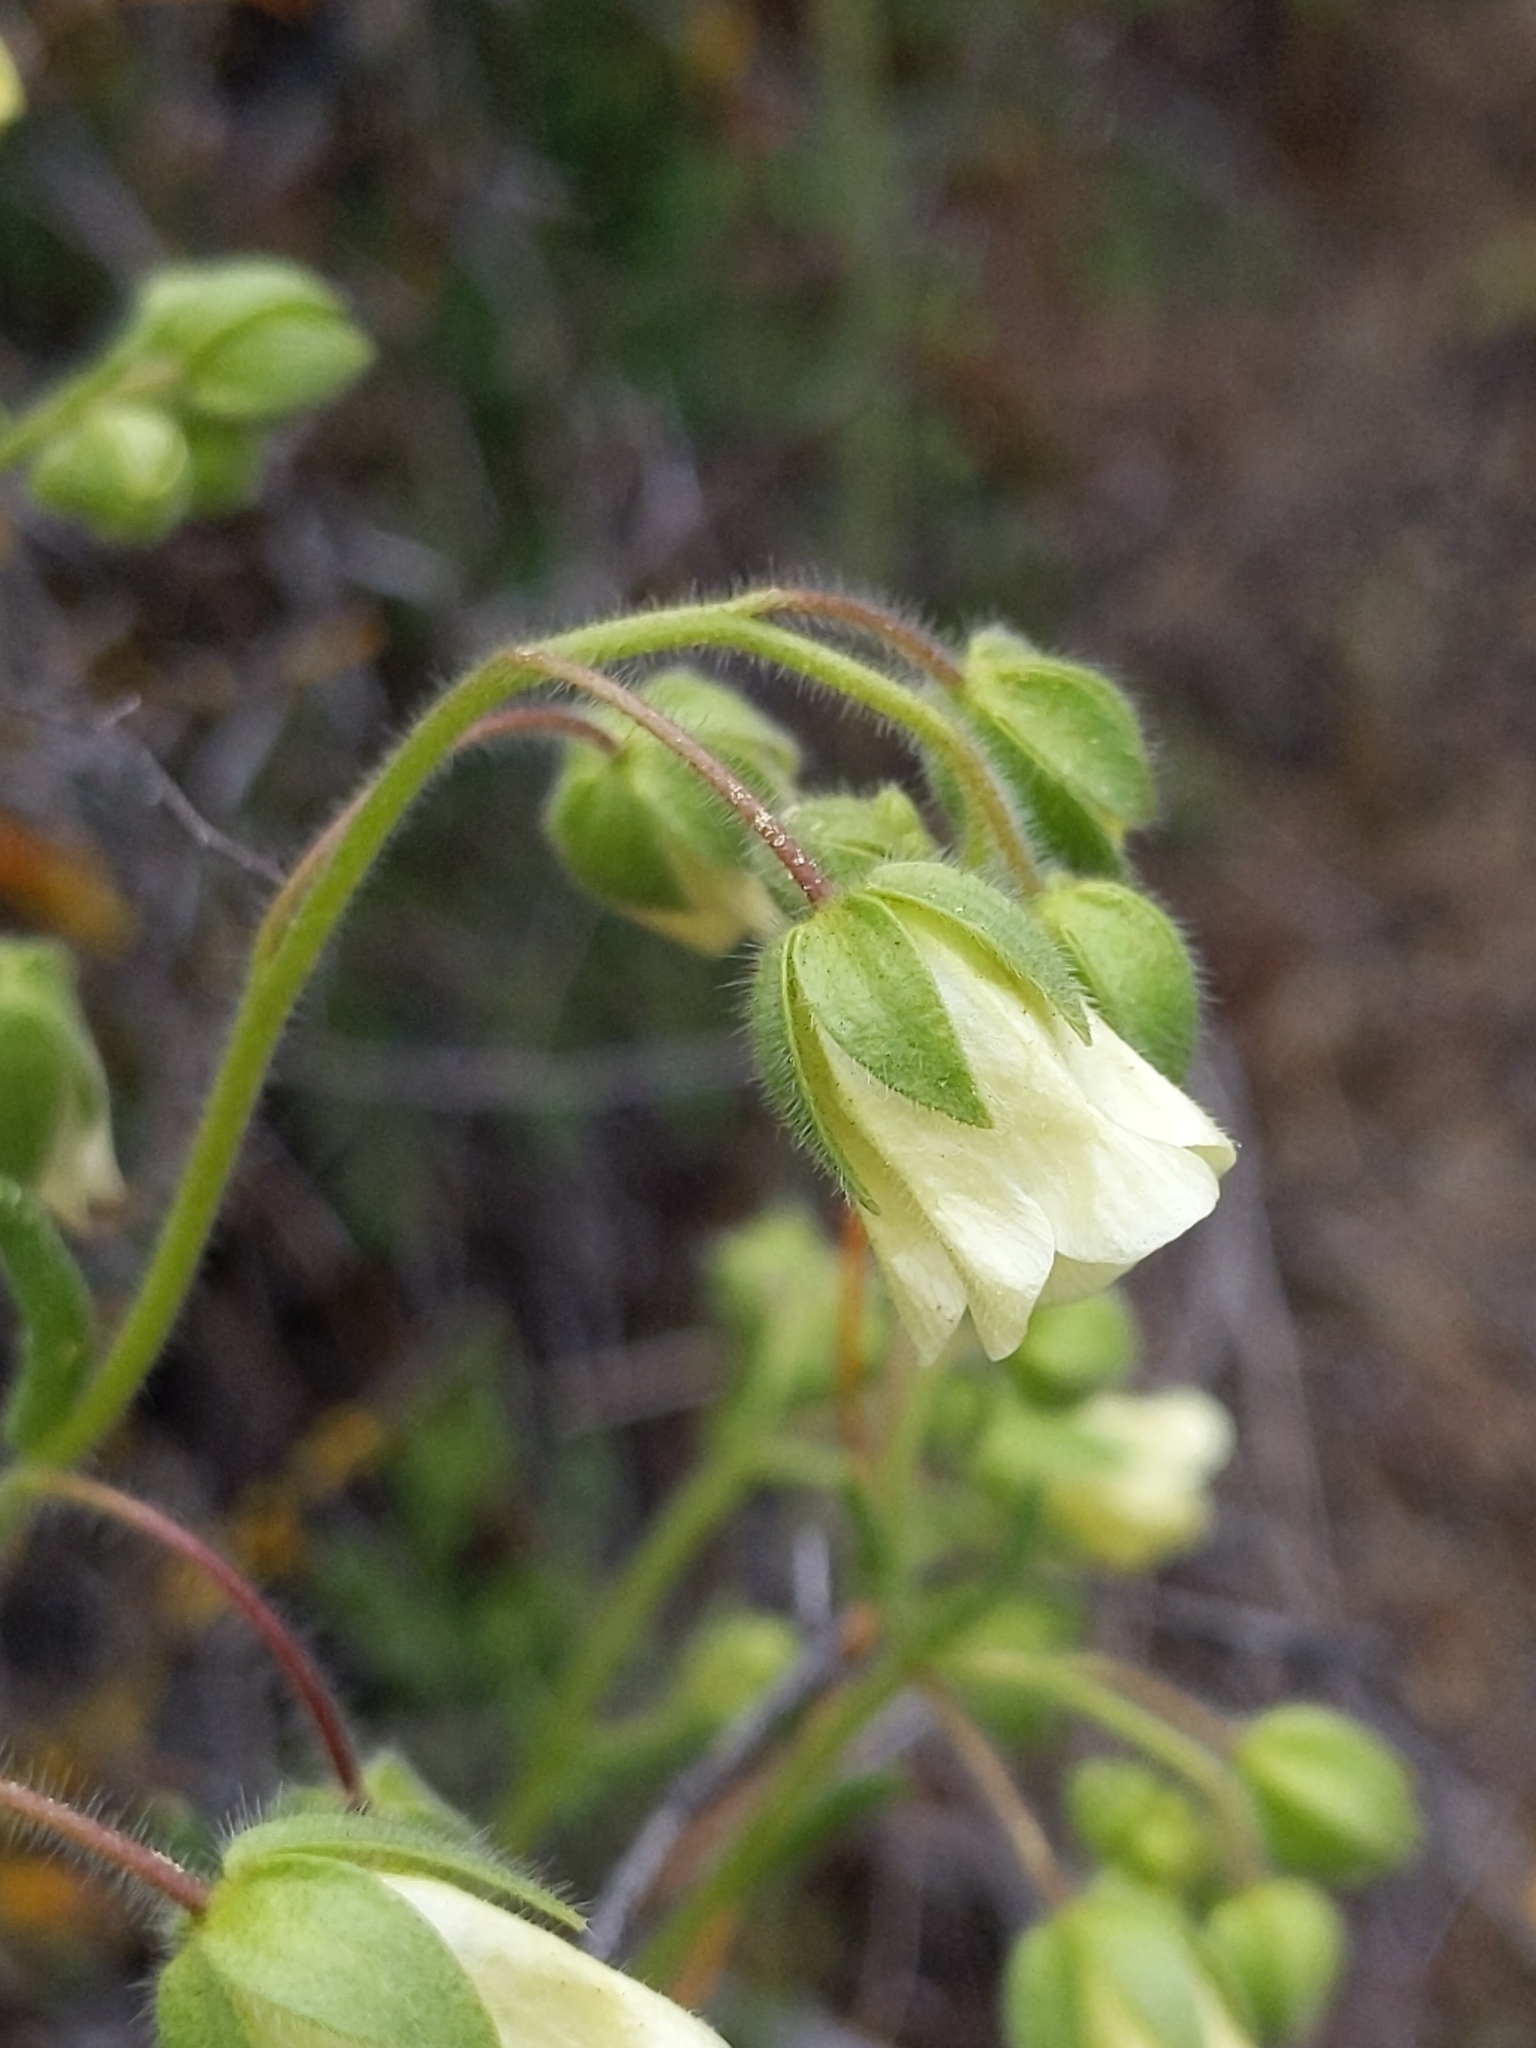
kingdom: Plantae
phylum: Tracheophyta
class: Magnoliopsida
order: Boraginales
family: Hydrophyllaceae
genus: Emmenanthe
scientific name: Emmenanthe penduliflora
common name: Whispering-bells
